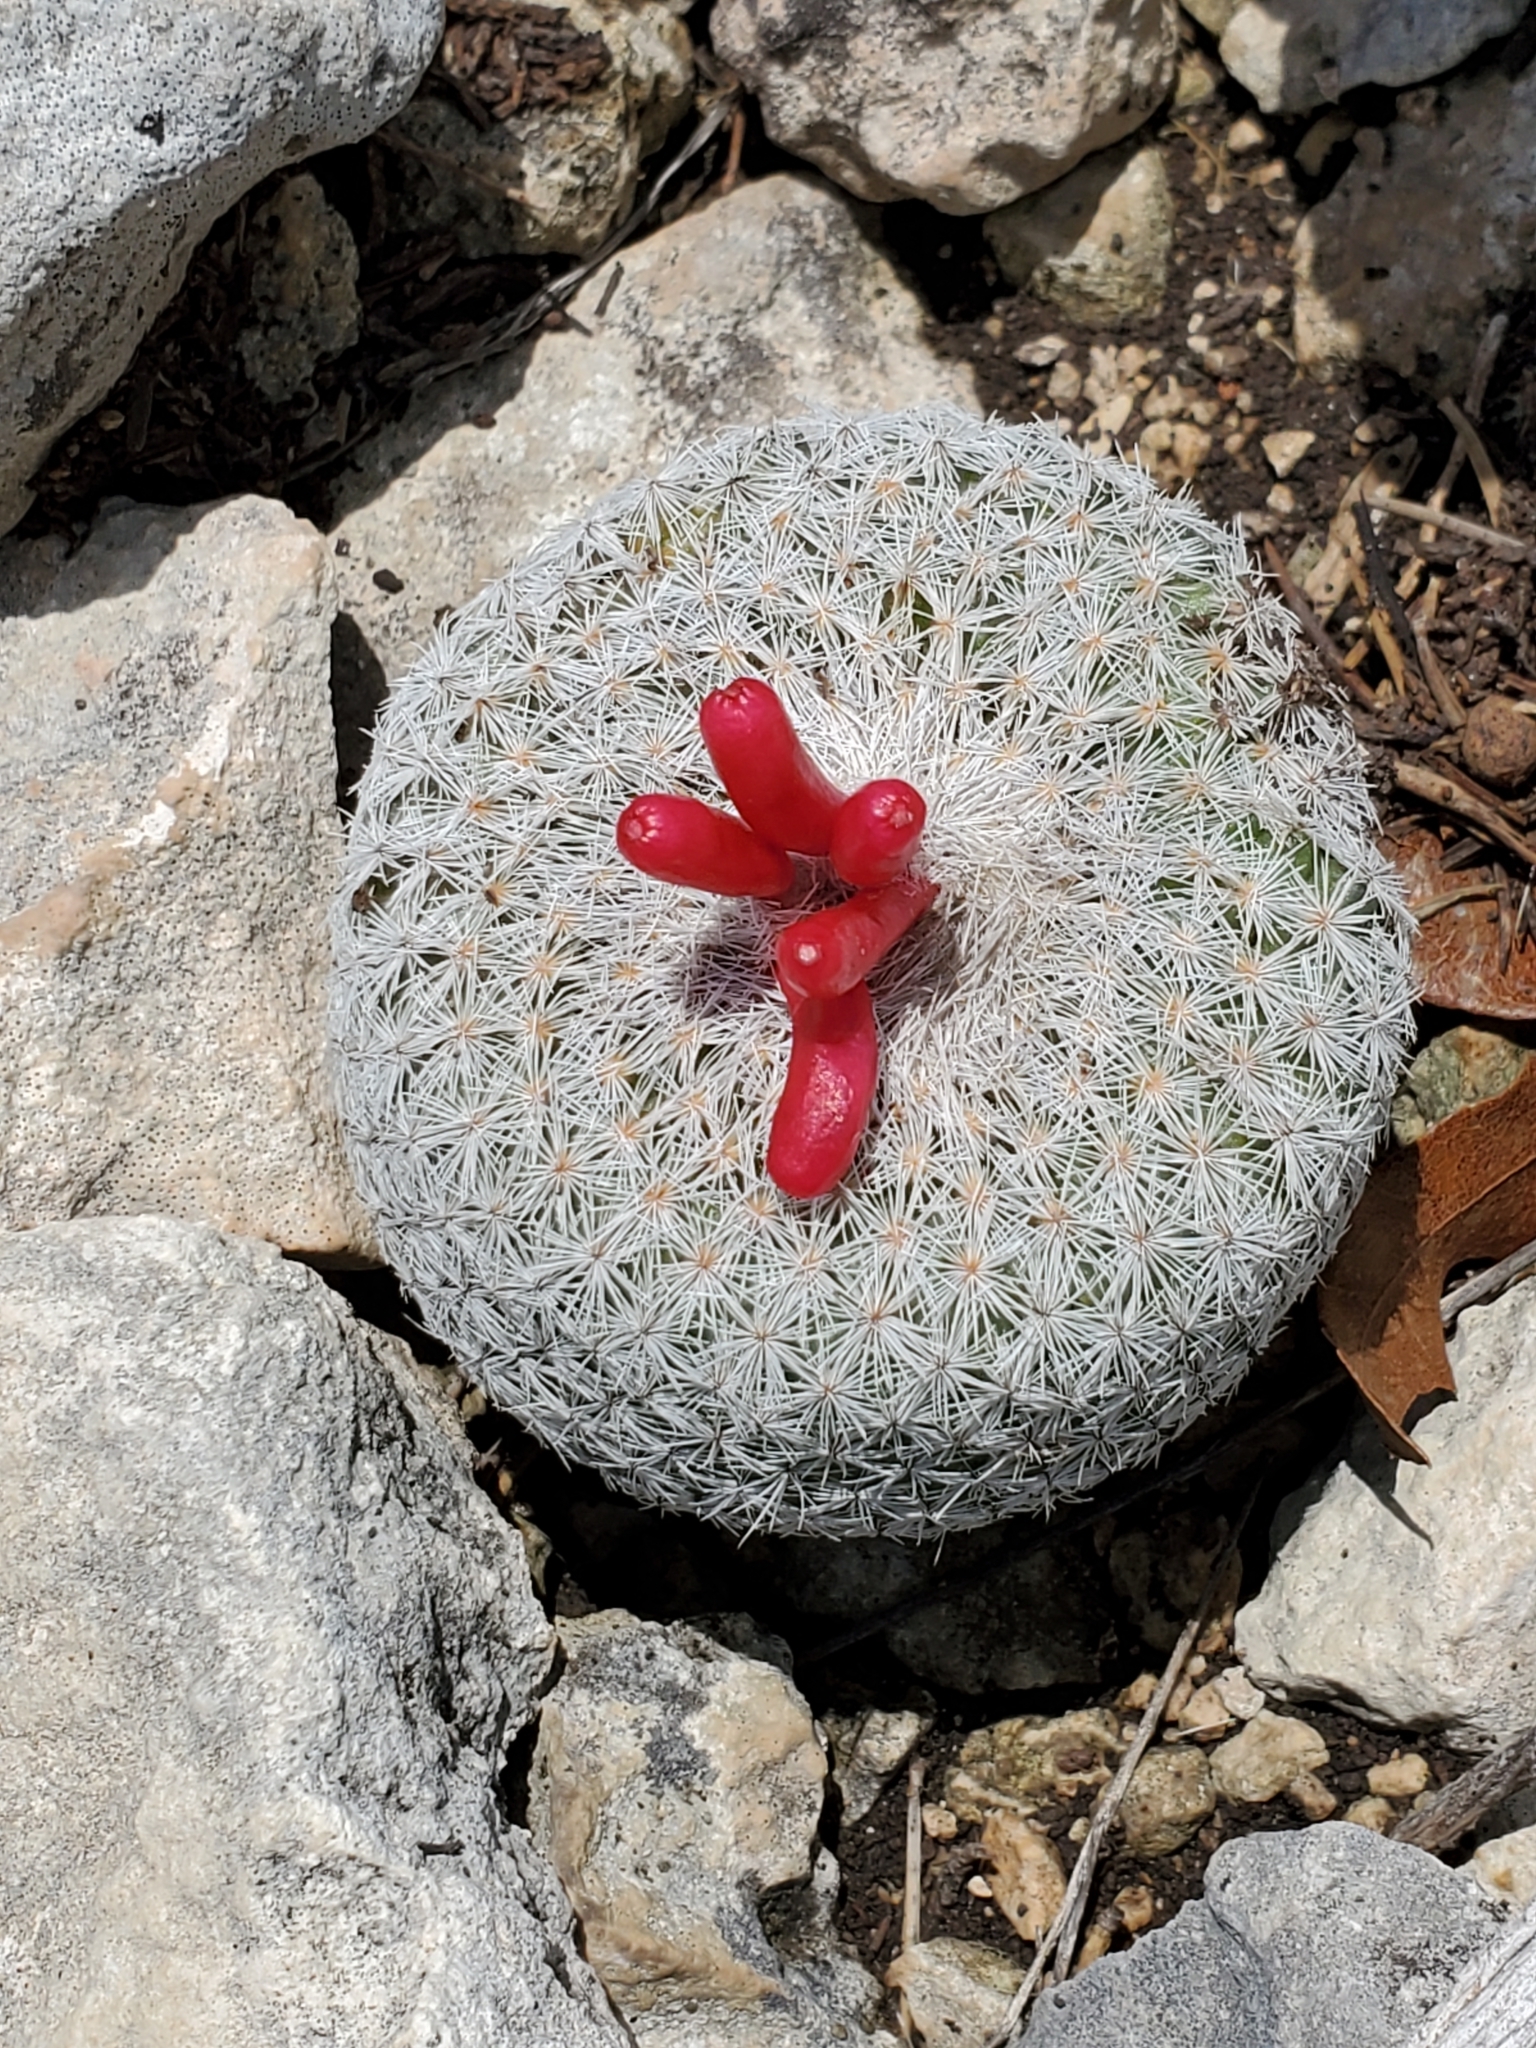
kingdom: Plantae
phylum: Tracheophyta
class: Magnoliopsida
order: Caryophyllales
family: Cactaceae
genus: Epithelantha
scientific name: Epithelantha micromeris
